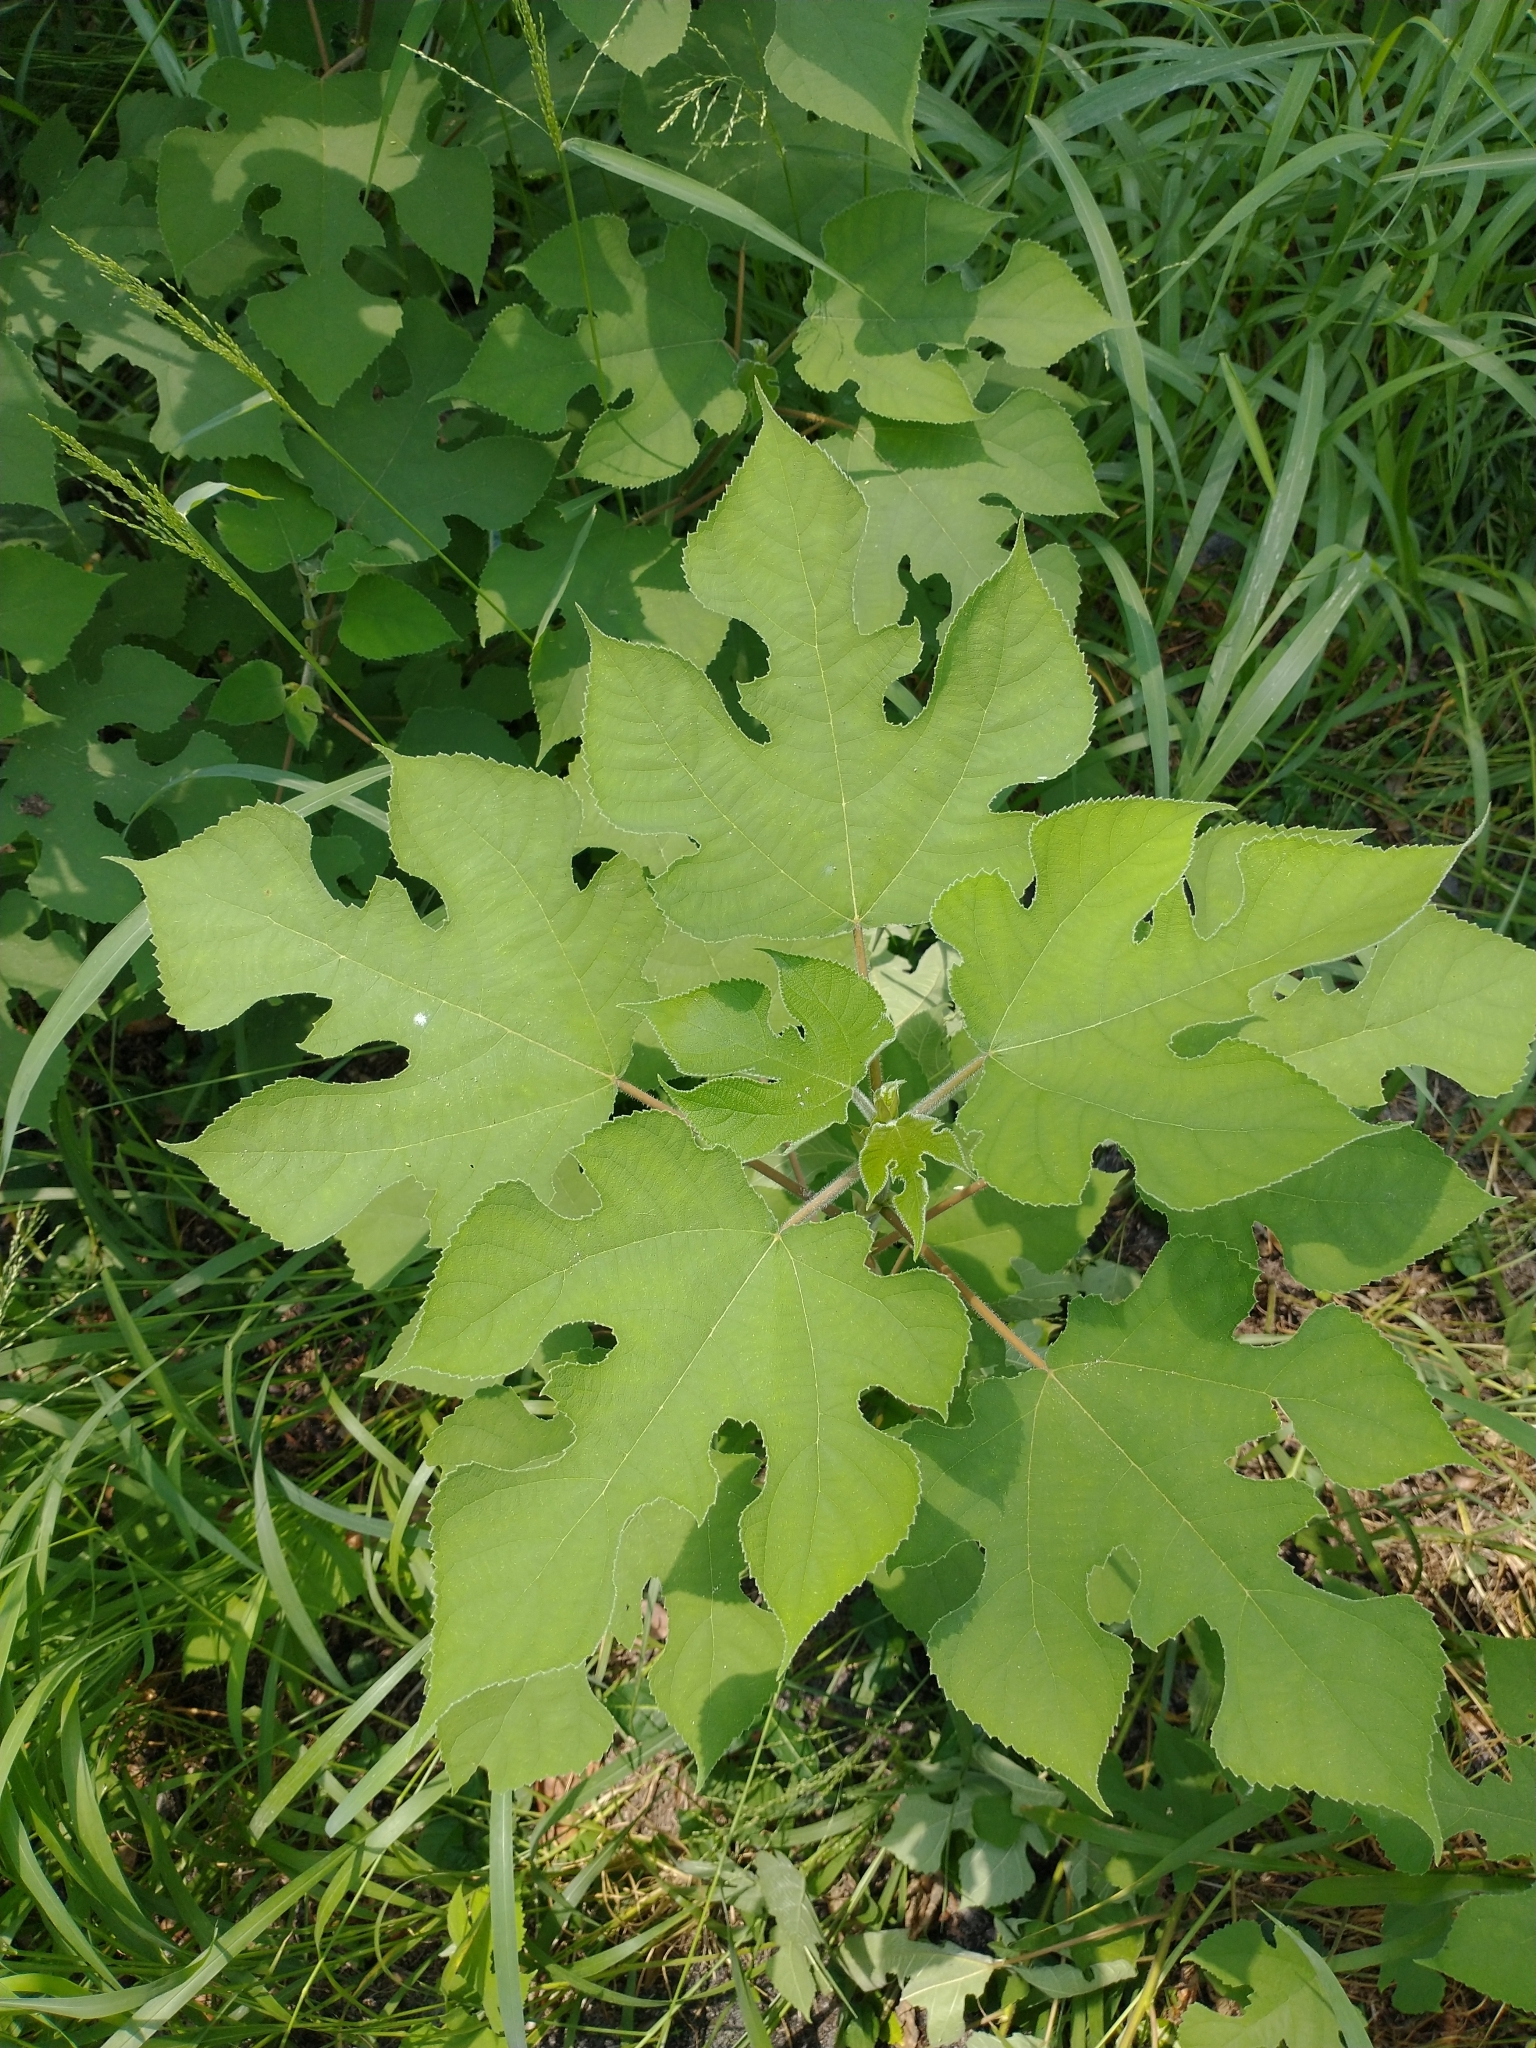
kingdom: Plantae
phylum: Tracheophyta
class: Magnoliopsida
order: Rosales
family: Moraceae
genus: Broussonetia
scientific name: Broussonetia papyrifera
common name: Paper mulberry
